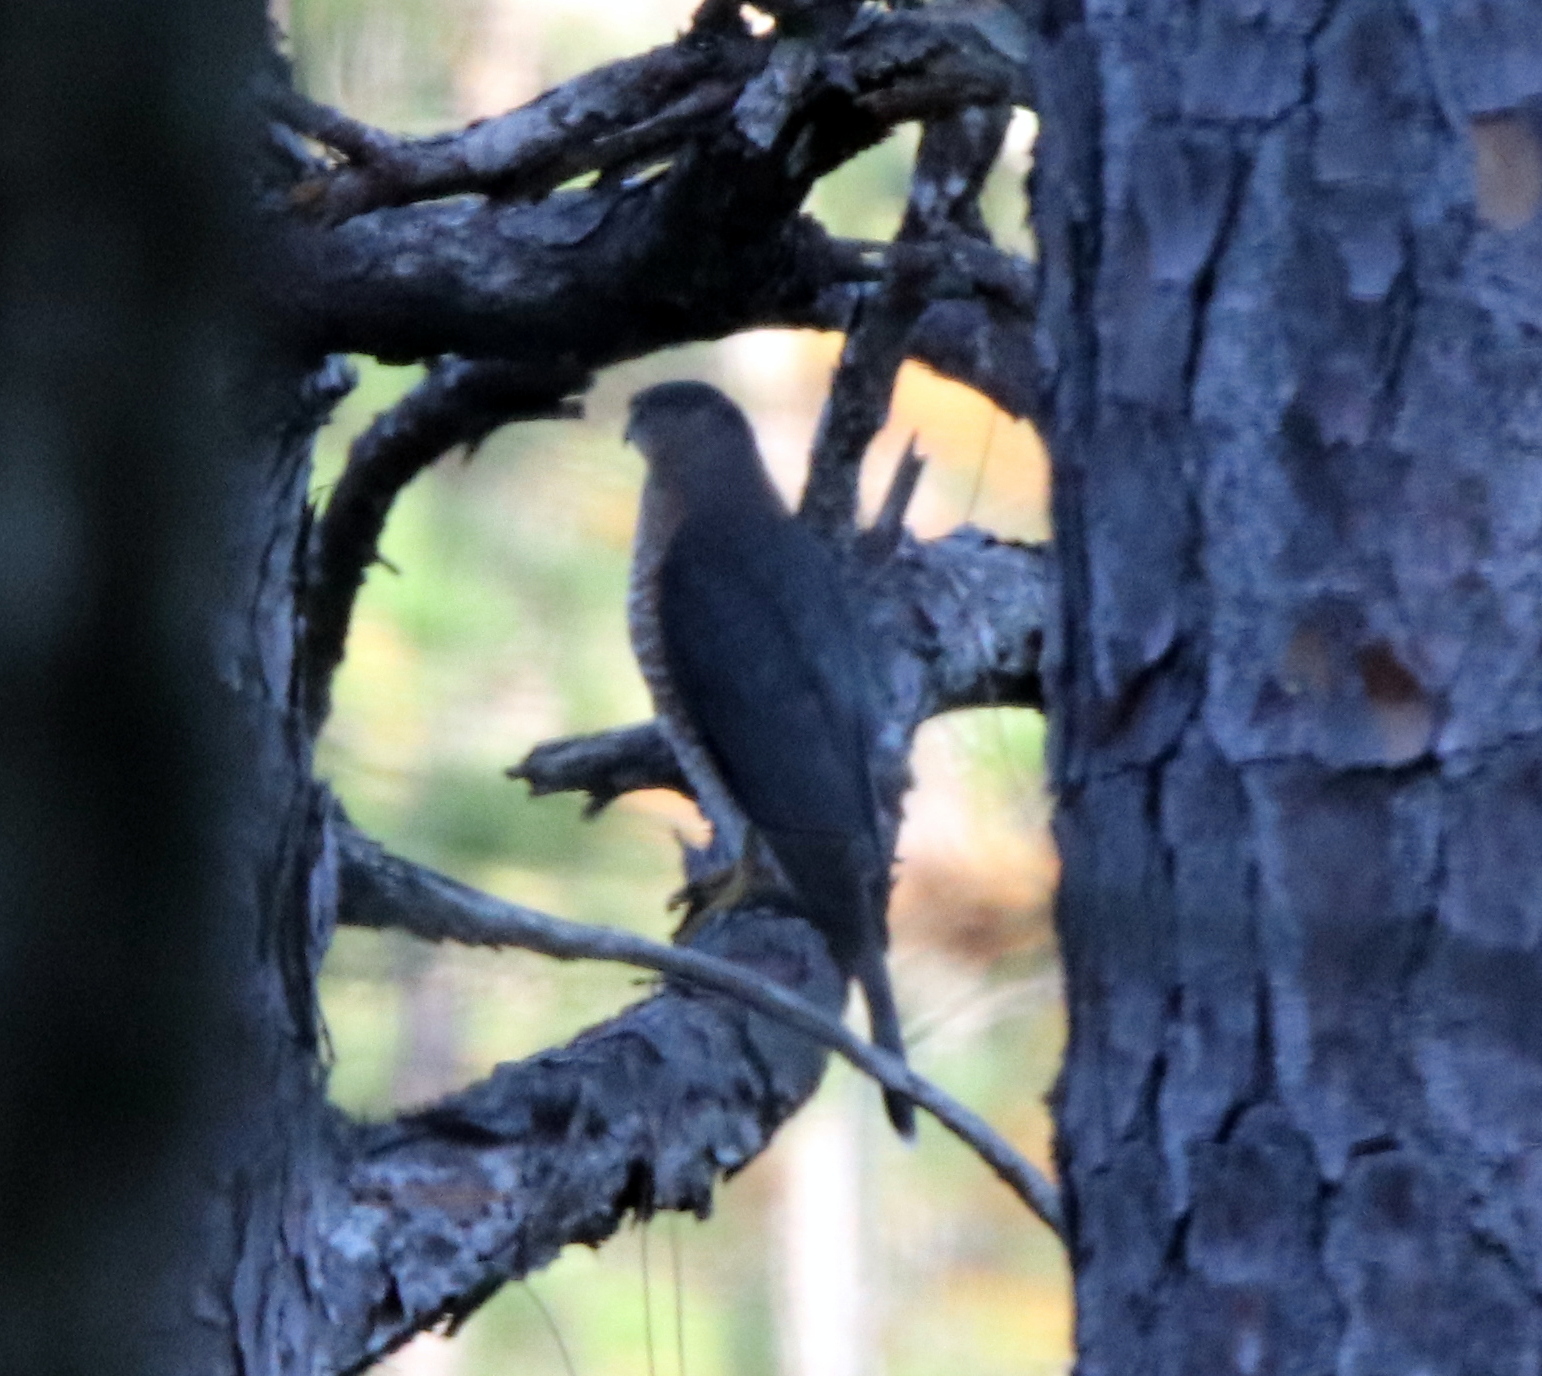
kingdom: Animalia
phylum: Chordata
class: Aves
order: Accipitriformes
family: Accipitridae
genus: Accipiter
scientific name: Accipiter cooperii
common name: Cooper's hawk
